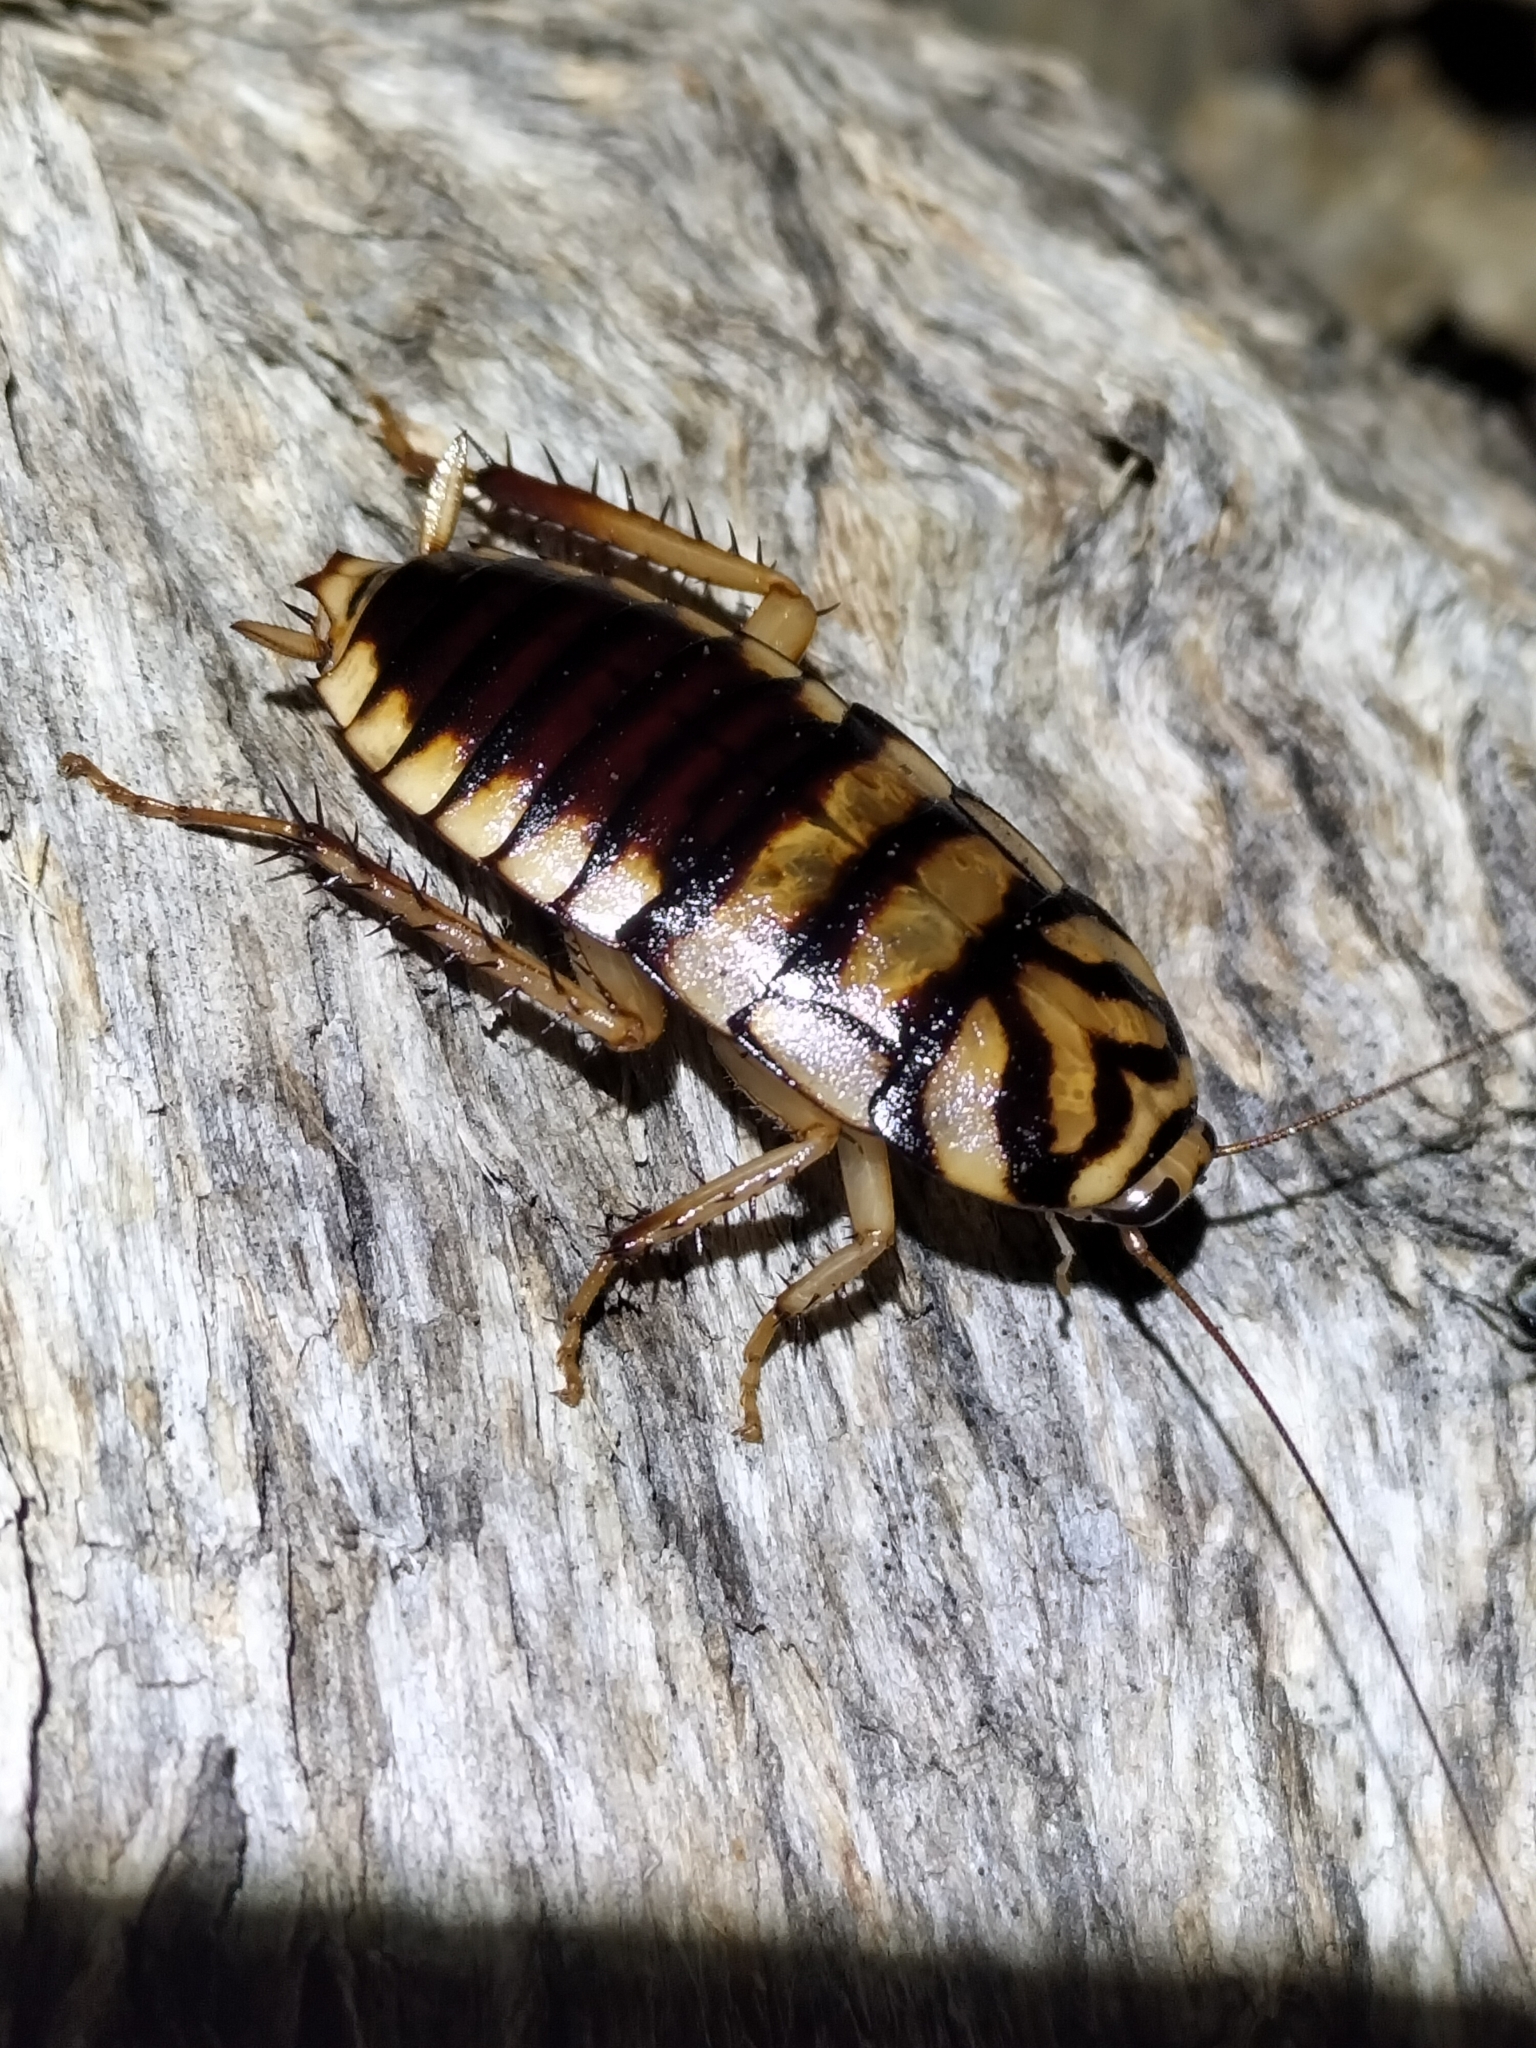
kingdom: Animalia
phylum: Arthropoda
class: Insecta
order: Blattodea
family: Blattidae
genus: Melanozosteria
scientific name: Melanozosteria triangulata
